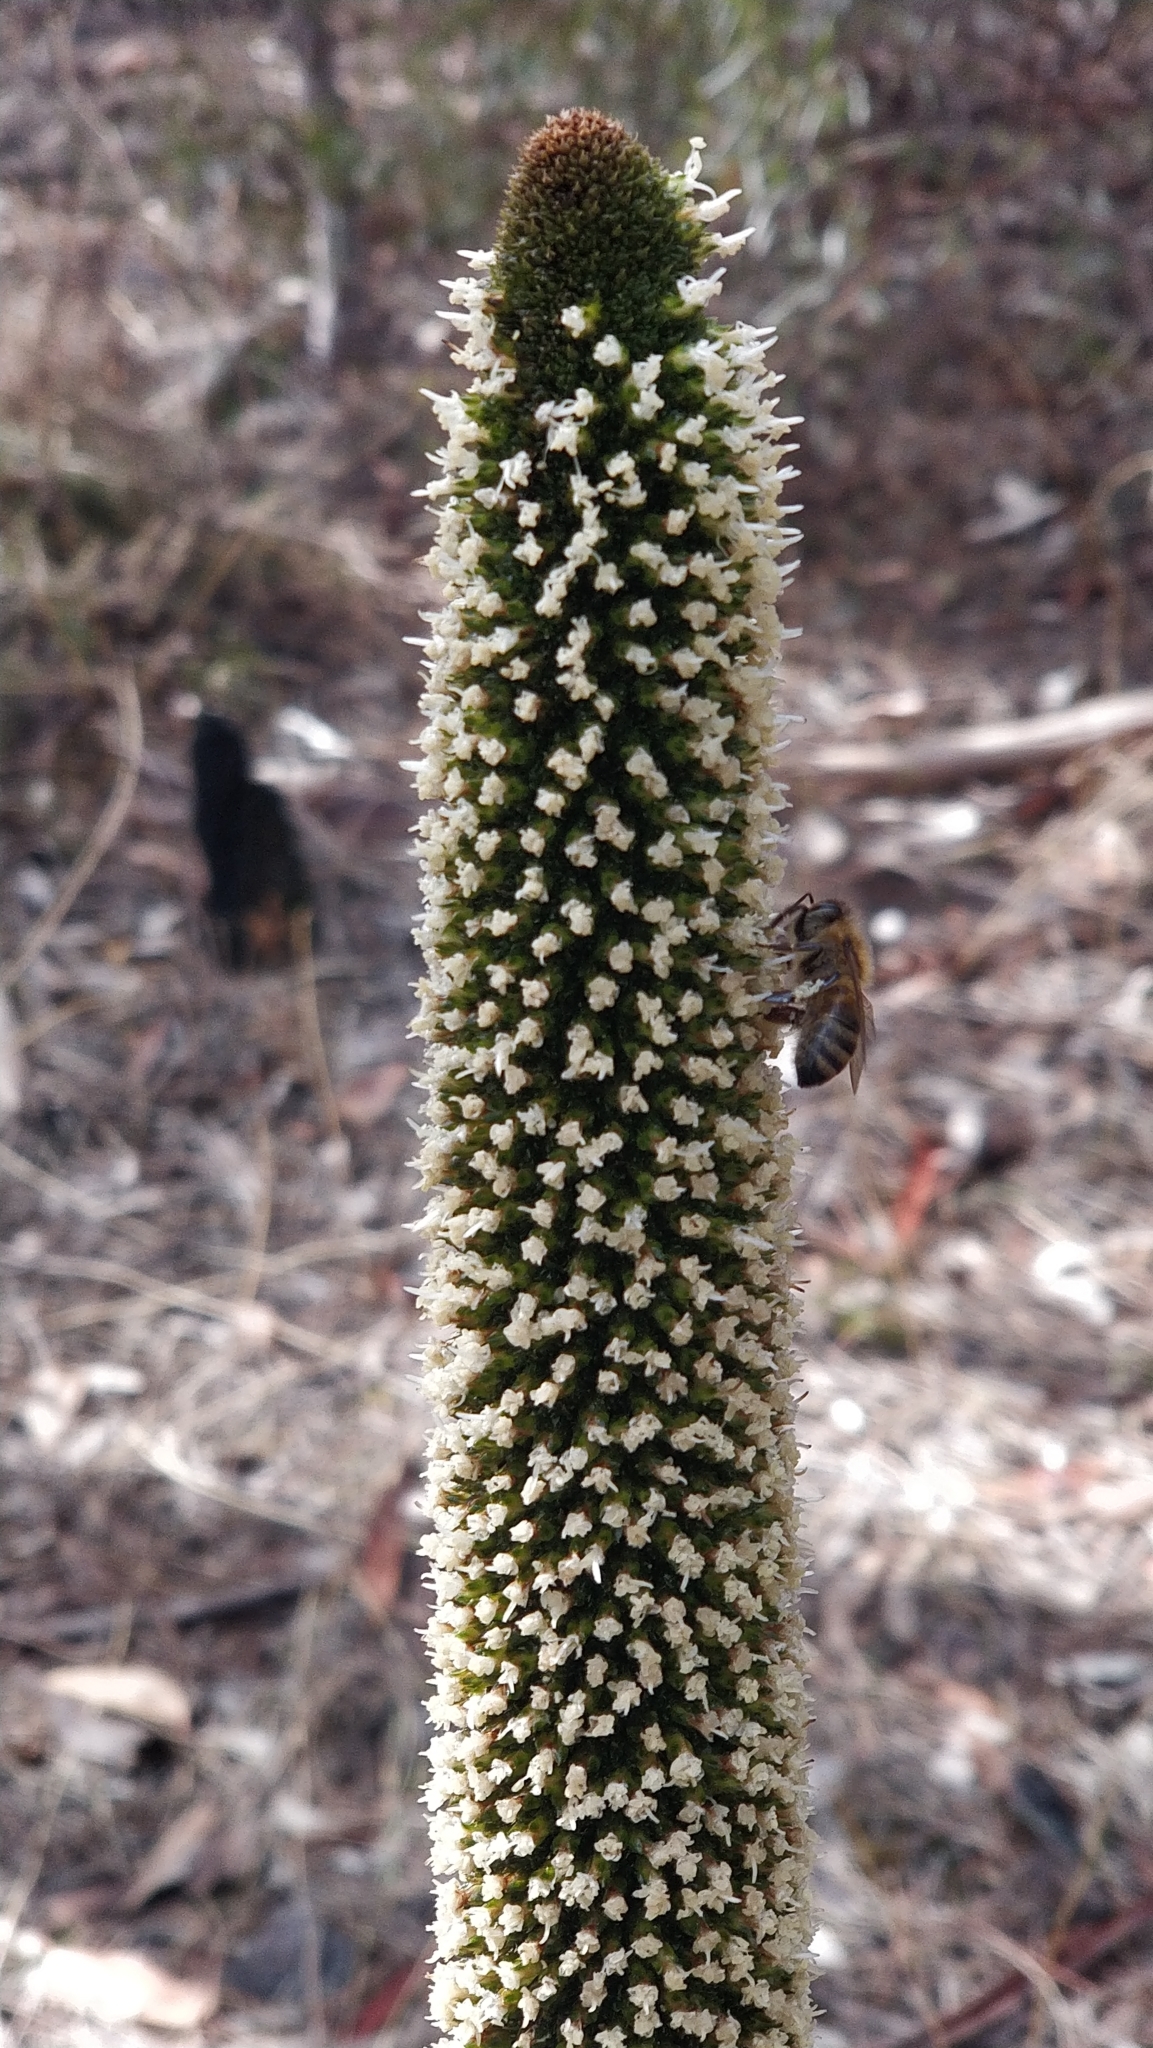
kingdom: Animalia
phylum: Arthropoda
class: Insecta
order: Hymenoptera
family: Apidae
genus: Apis
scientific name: Apis mellifera
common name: Honey bee
